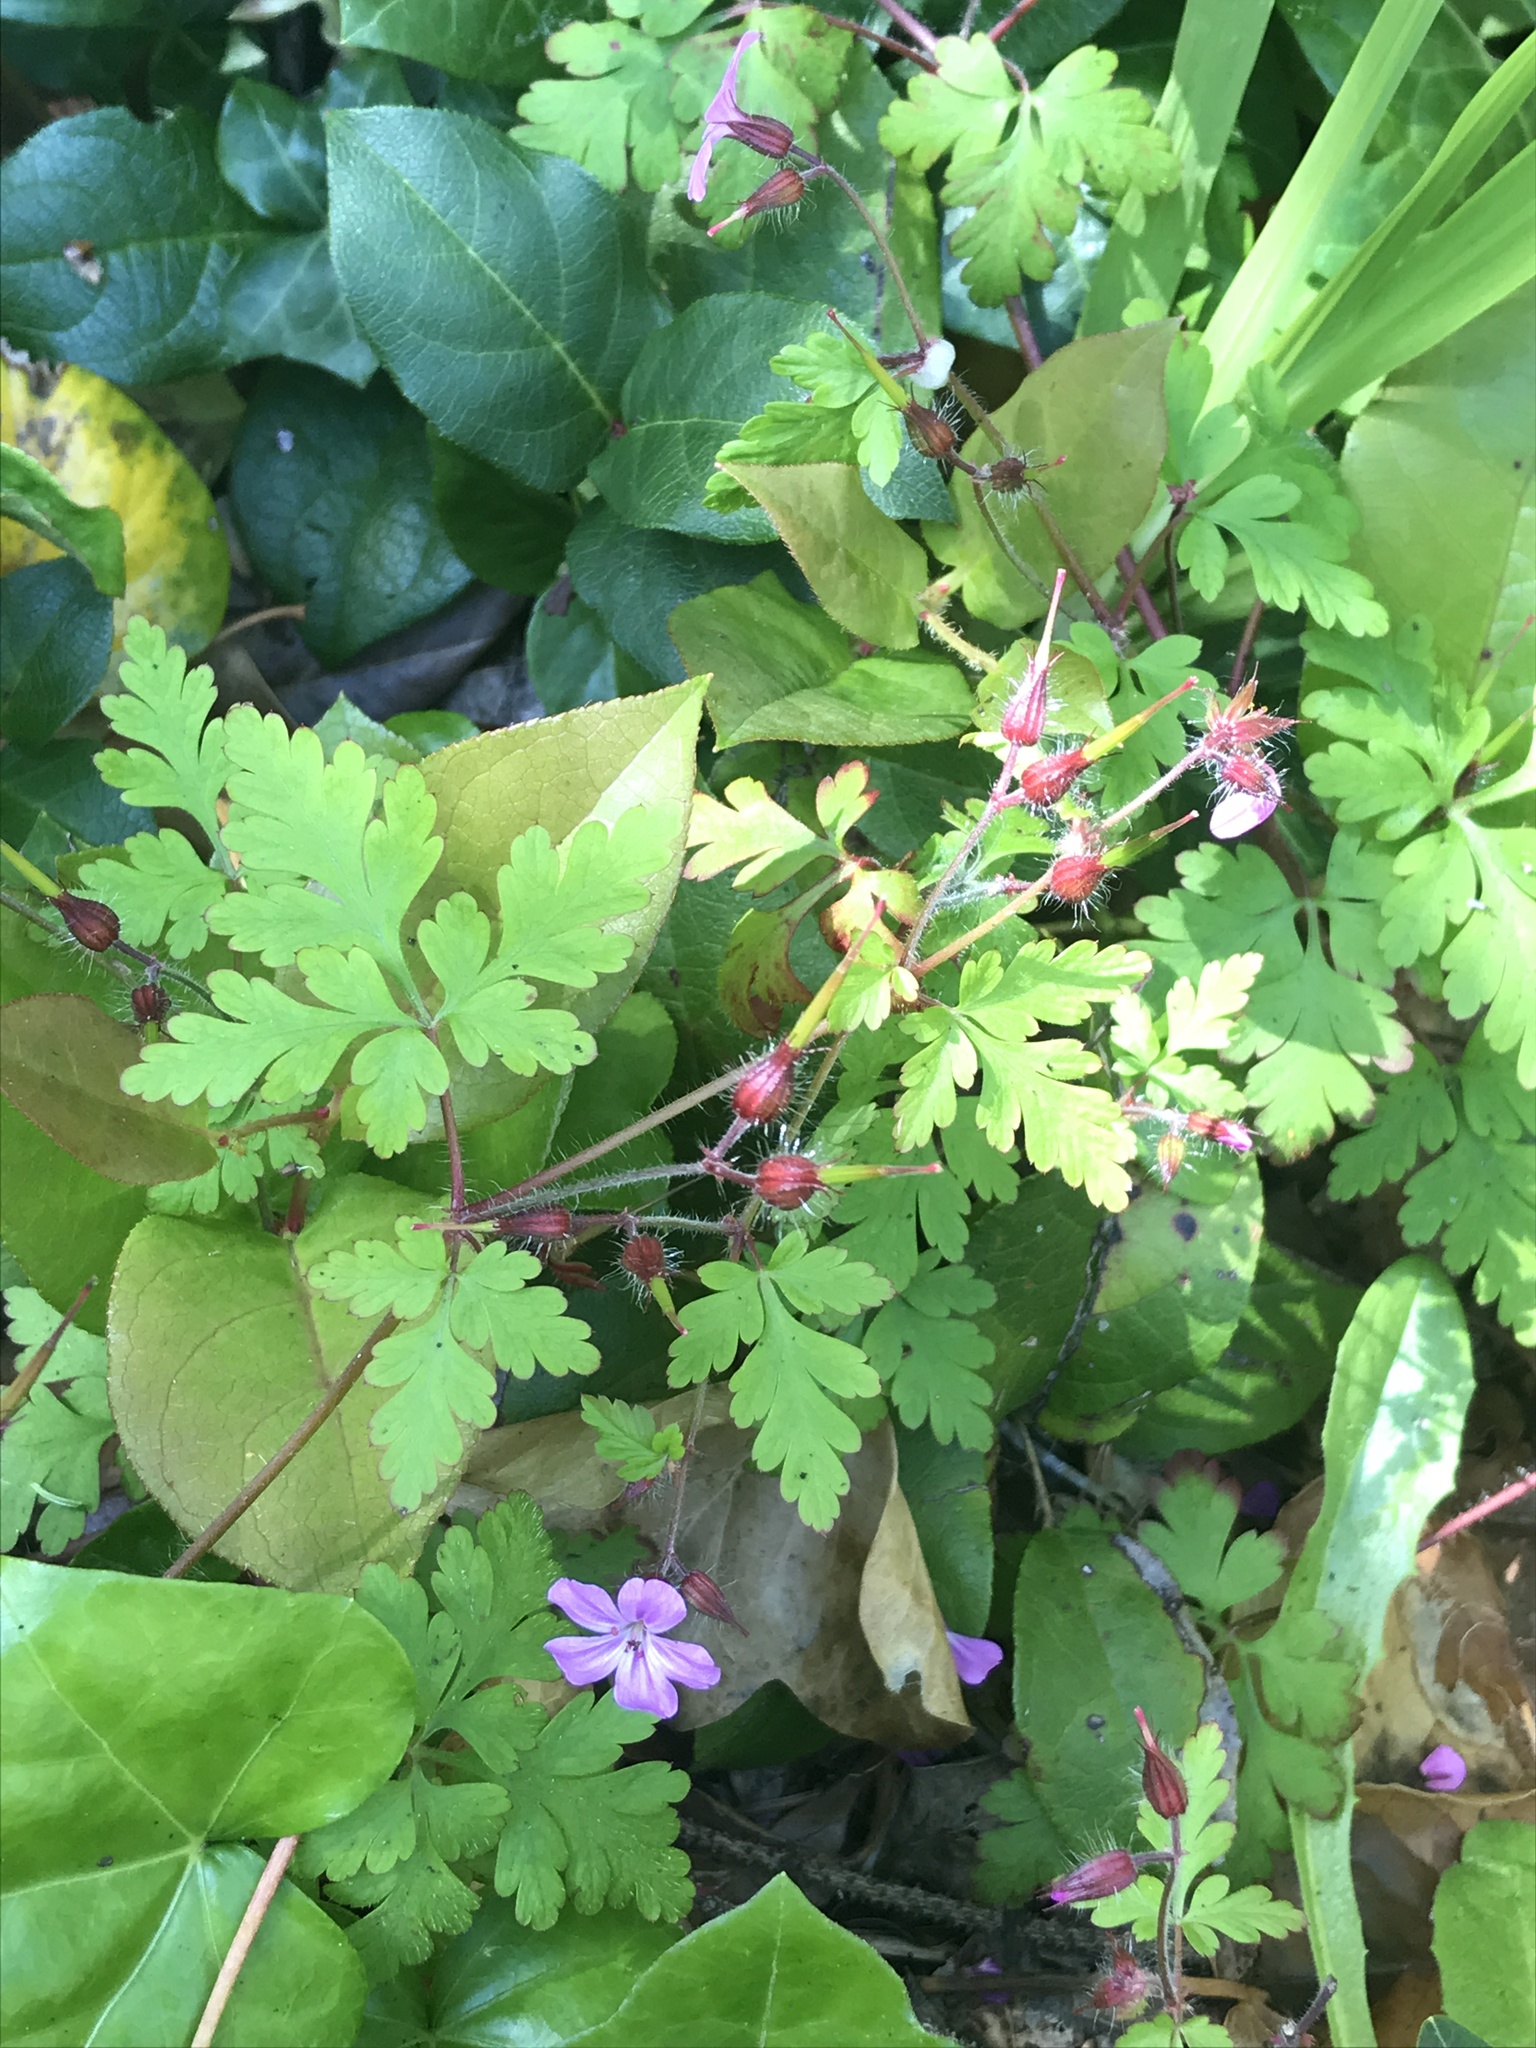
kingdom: Plantae
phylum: Tracheophyta
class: Magnoliopsida
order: Geraniales
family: Geraniaceae
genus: Geranium
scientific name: Geranium robertianum
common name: Herb-robert
